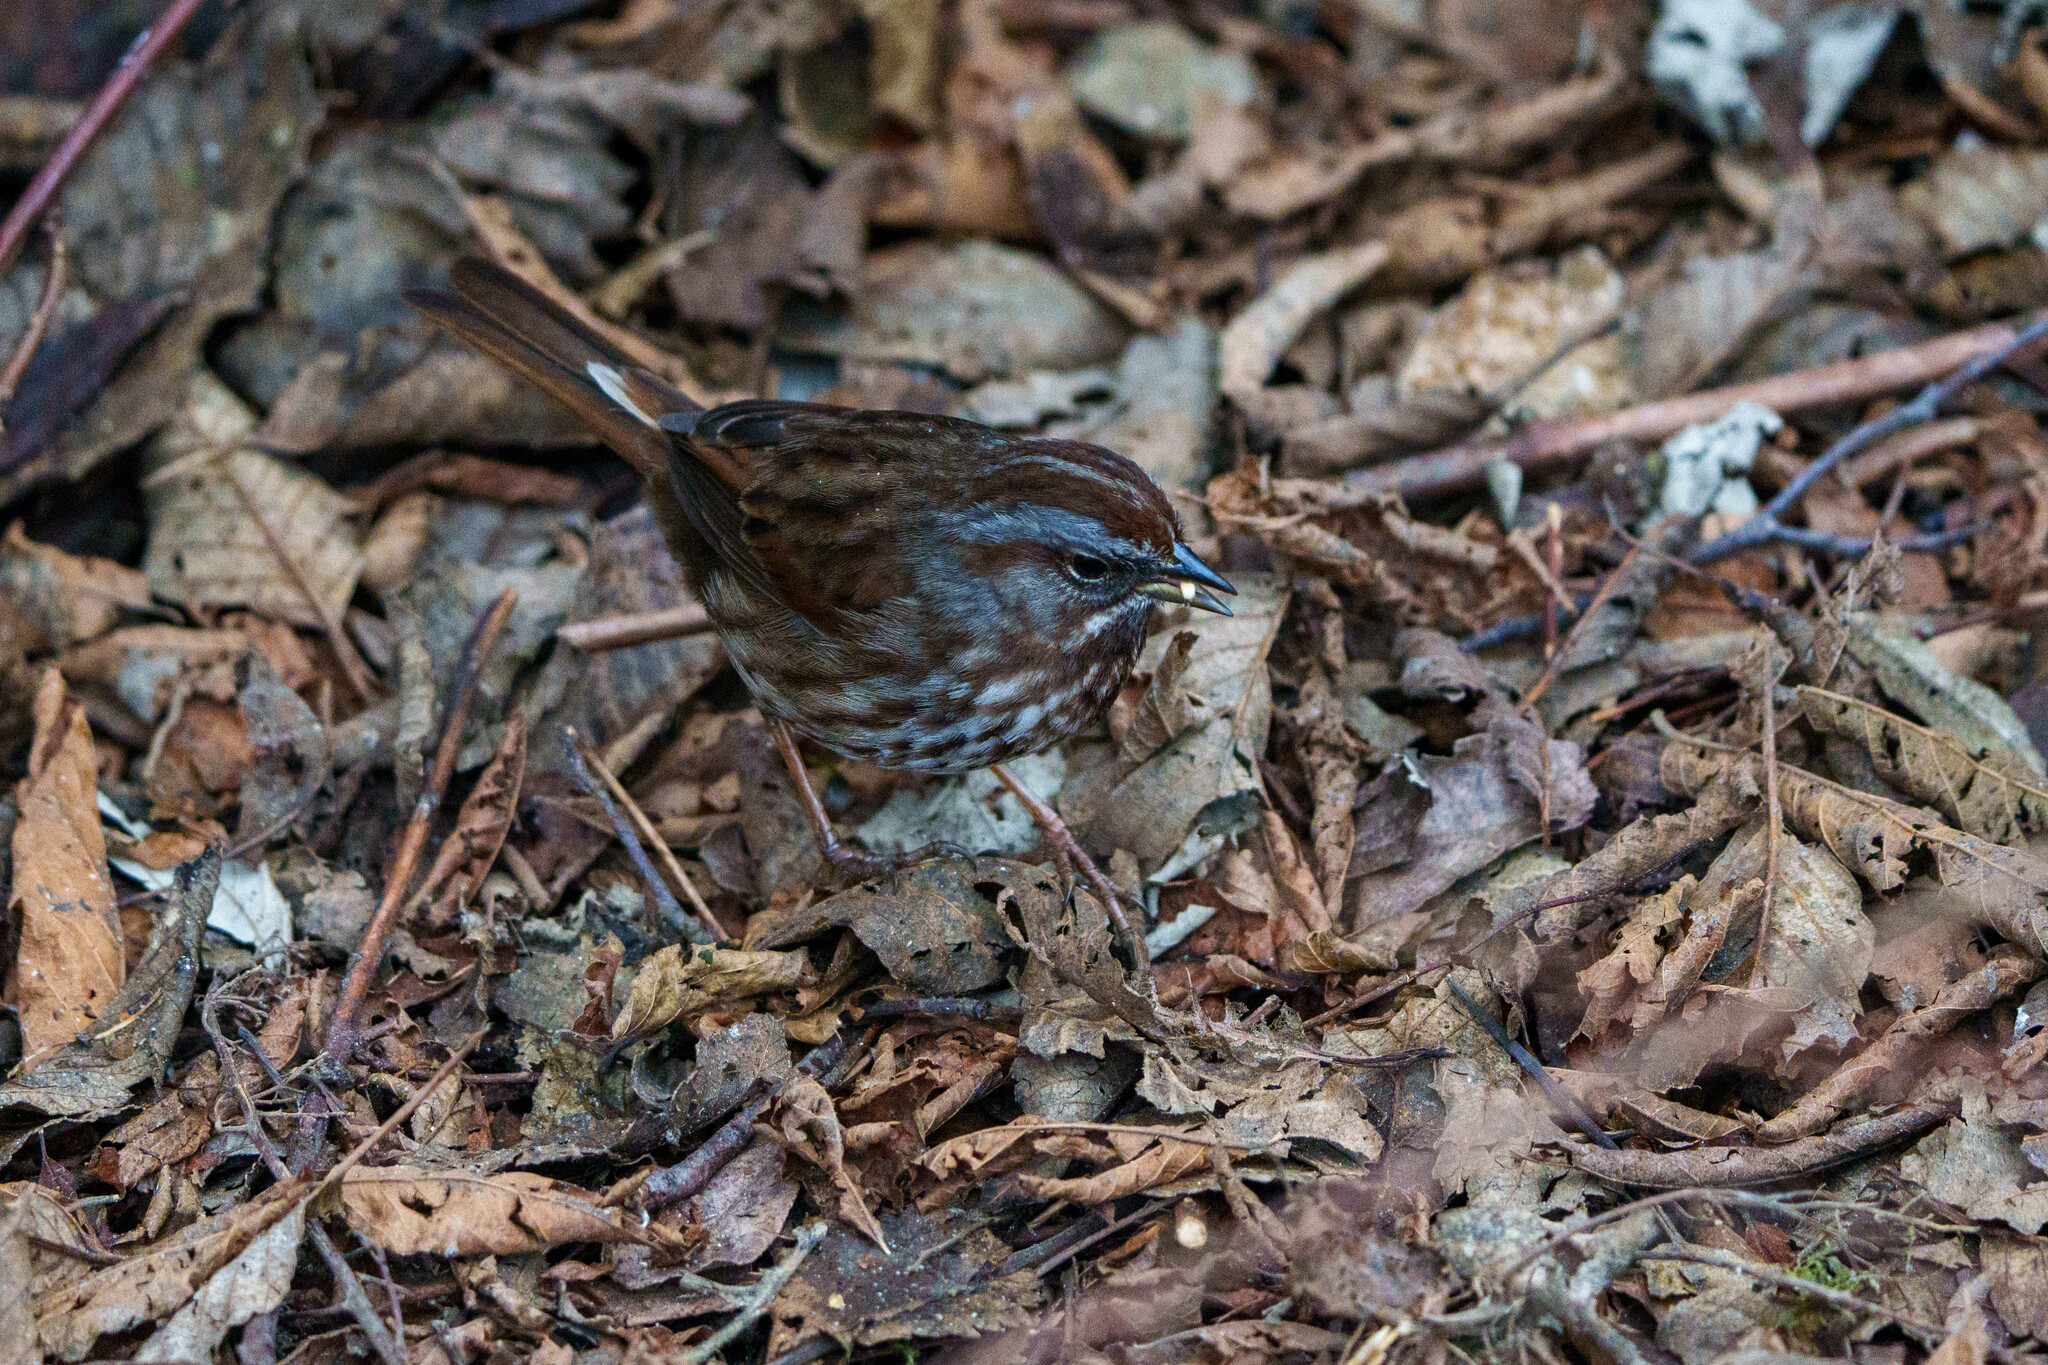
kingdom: Animalia
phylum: Chordata
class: Aves
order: Passeriformes
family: Passerellidae
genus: Melospiza
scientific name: Melospiza melodia
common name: Song sparrow
